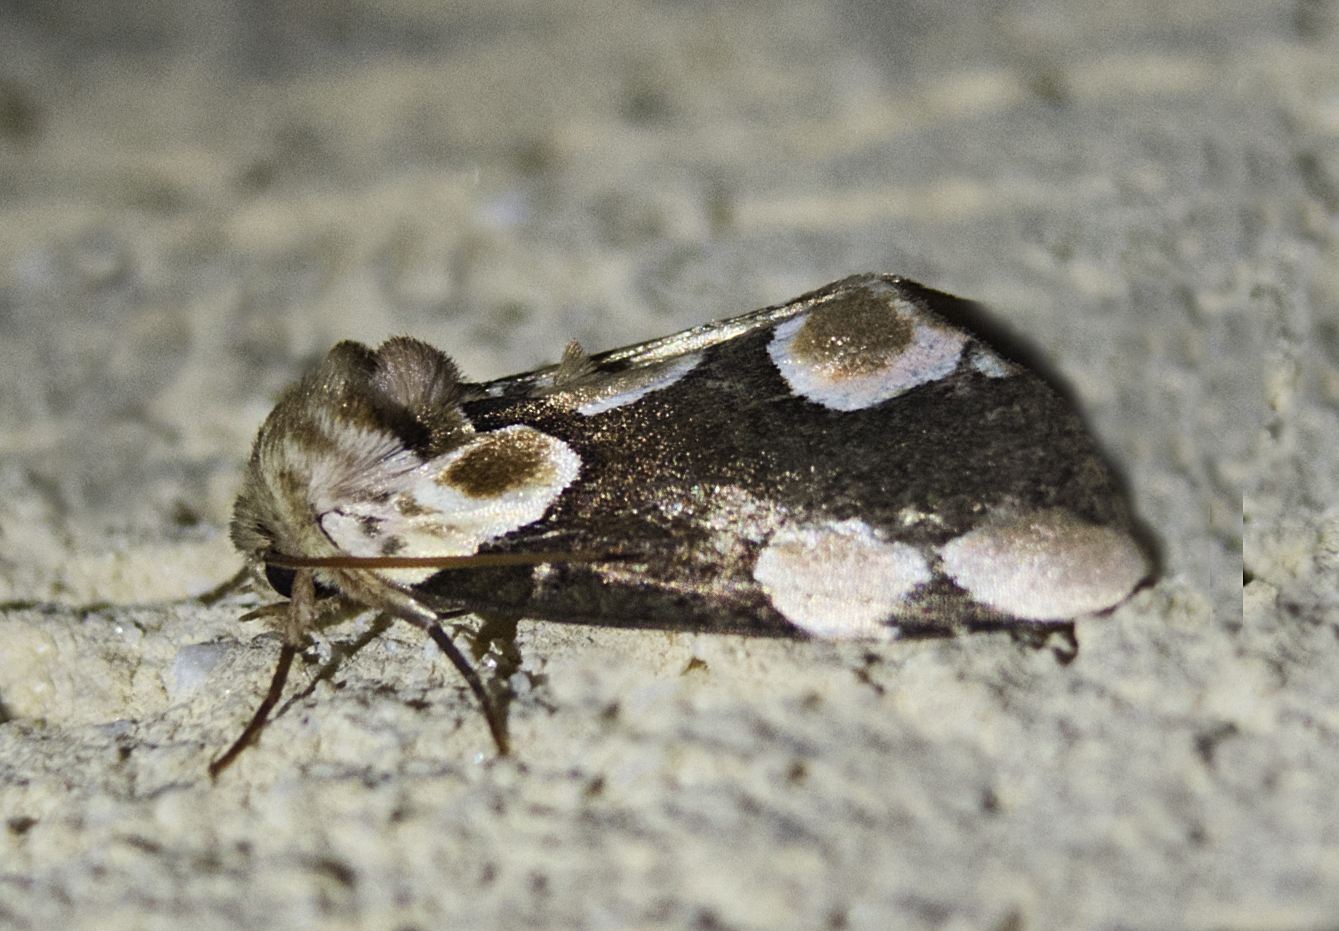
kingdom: Animalia
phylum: Arthropoda
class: Insecta
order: Lepidoptera
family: Drepanidae
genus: Thyatira
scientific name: Thyatira batis
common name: Peach blossom
